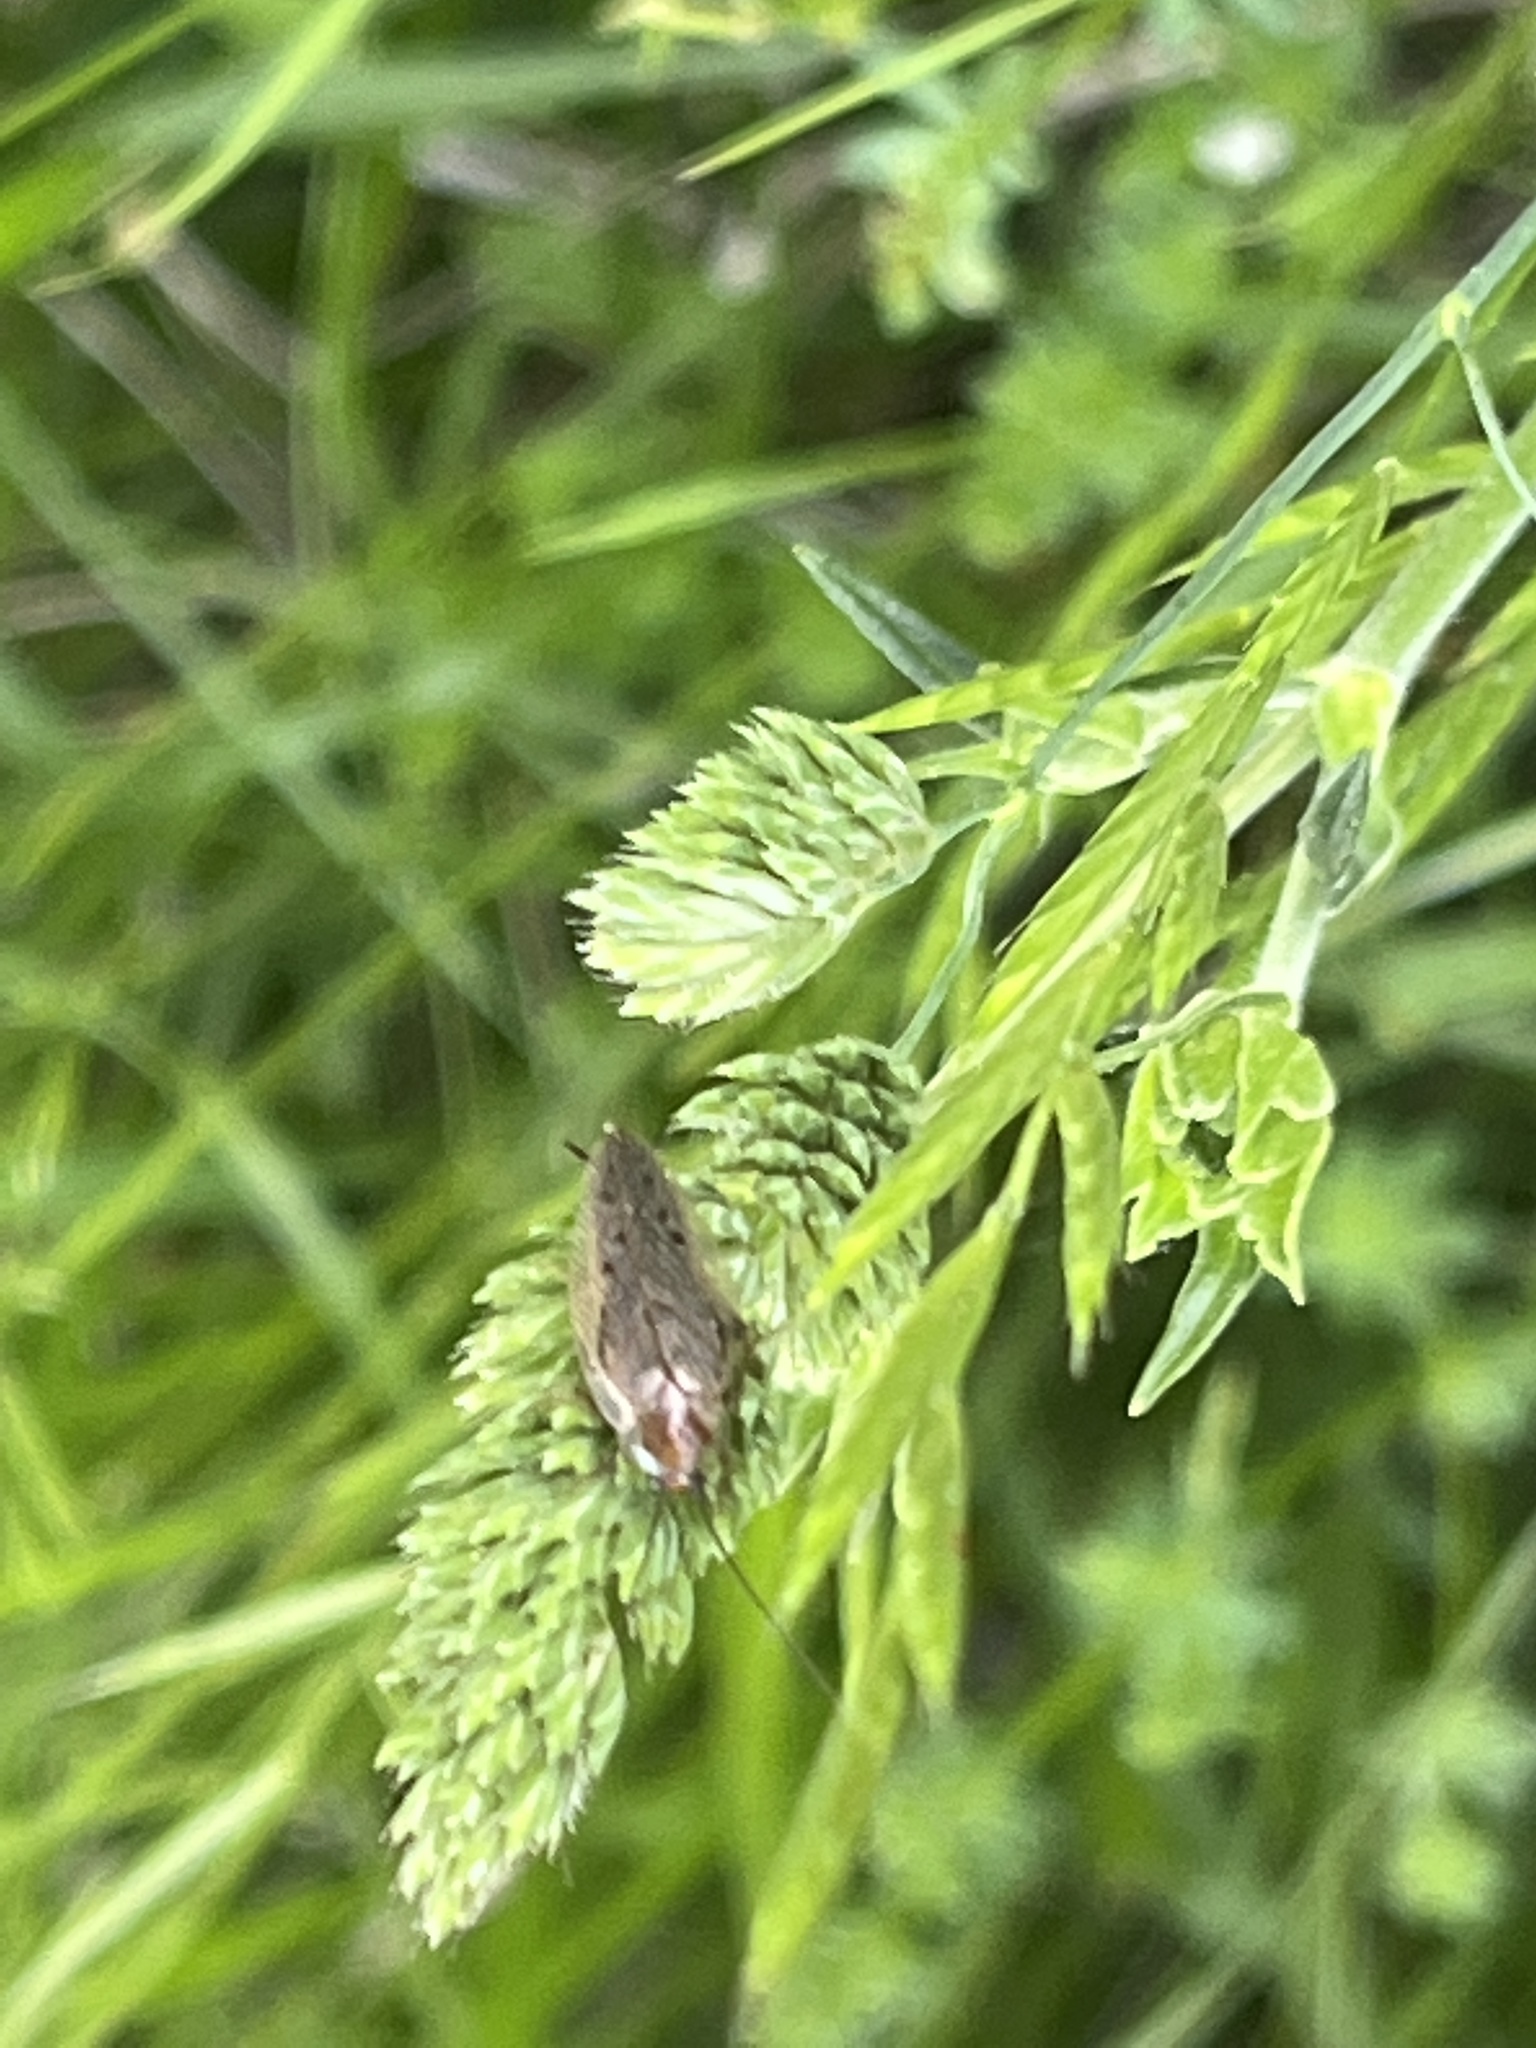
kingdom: Animalia
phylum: Arthropoda
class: Insecta
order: Blattodea
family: Ectobiidae
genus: Ectobius
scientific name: Ectobius lapponicus
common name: Dusky cockroach
